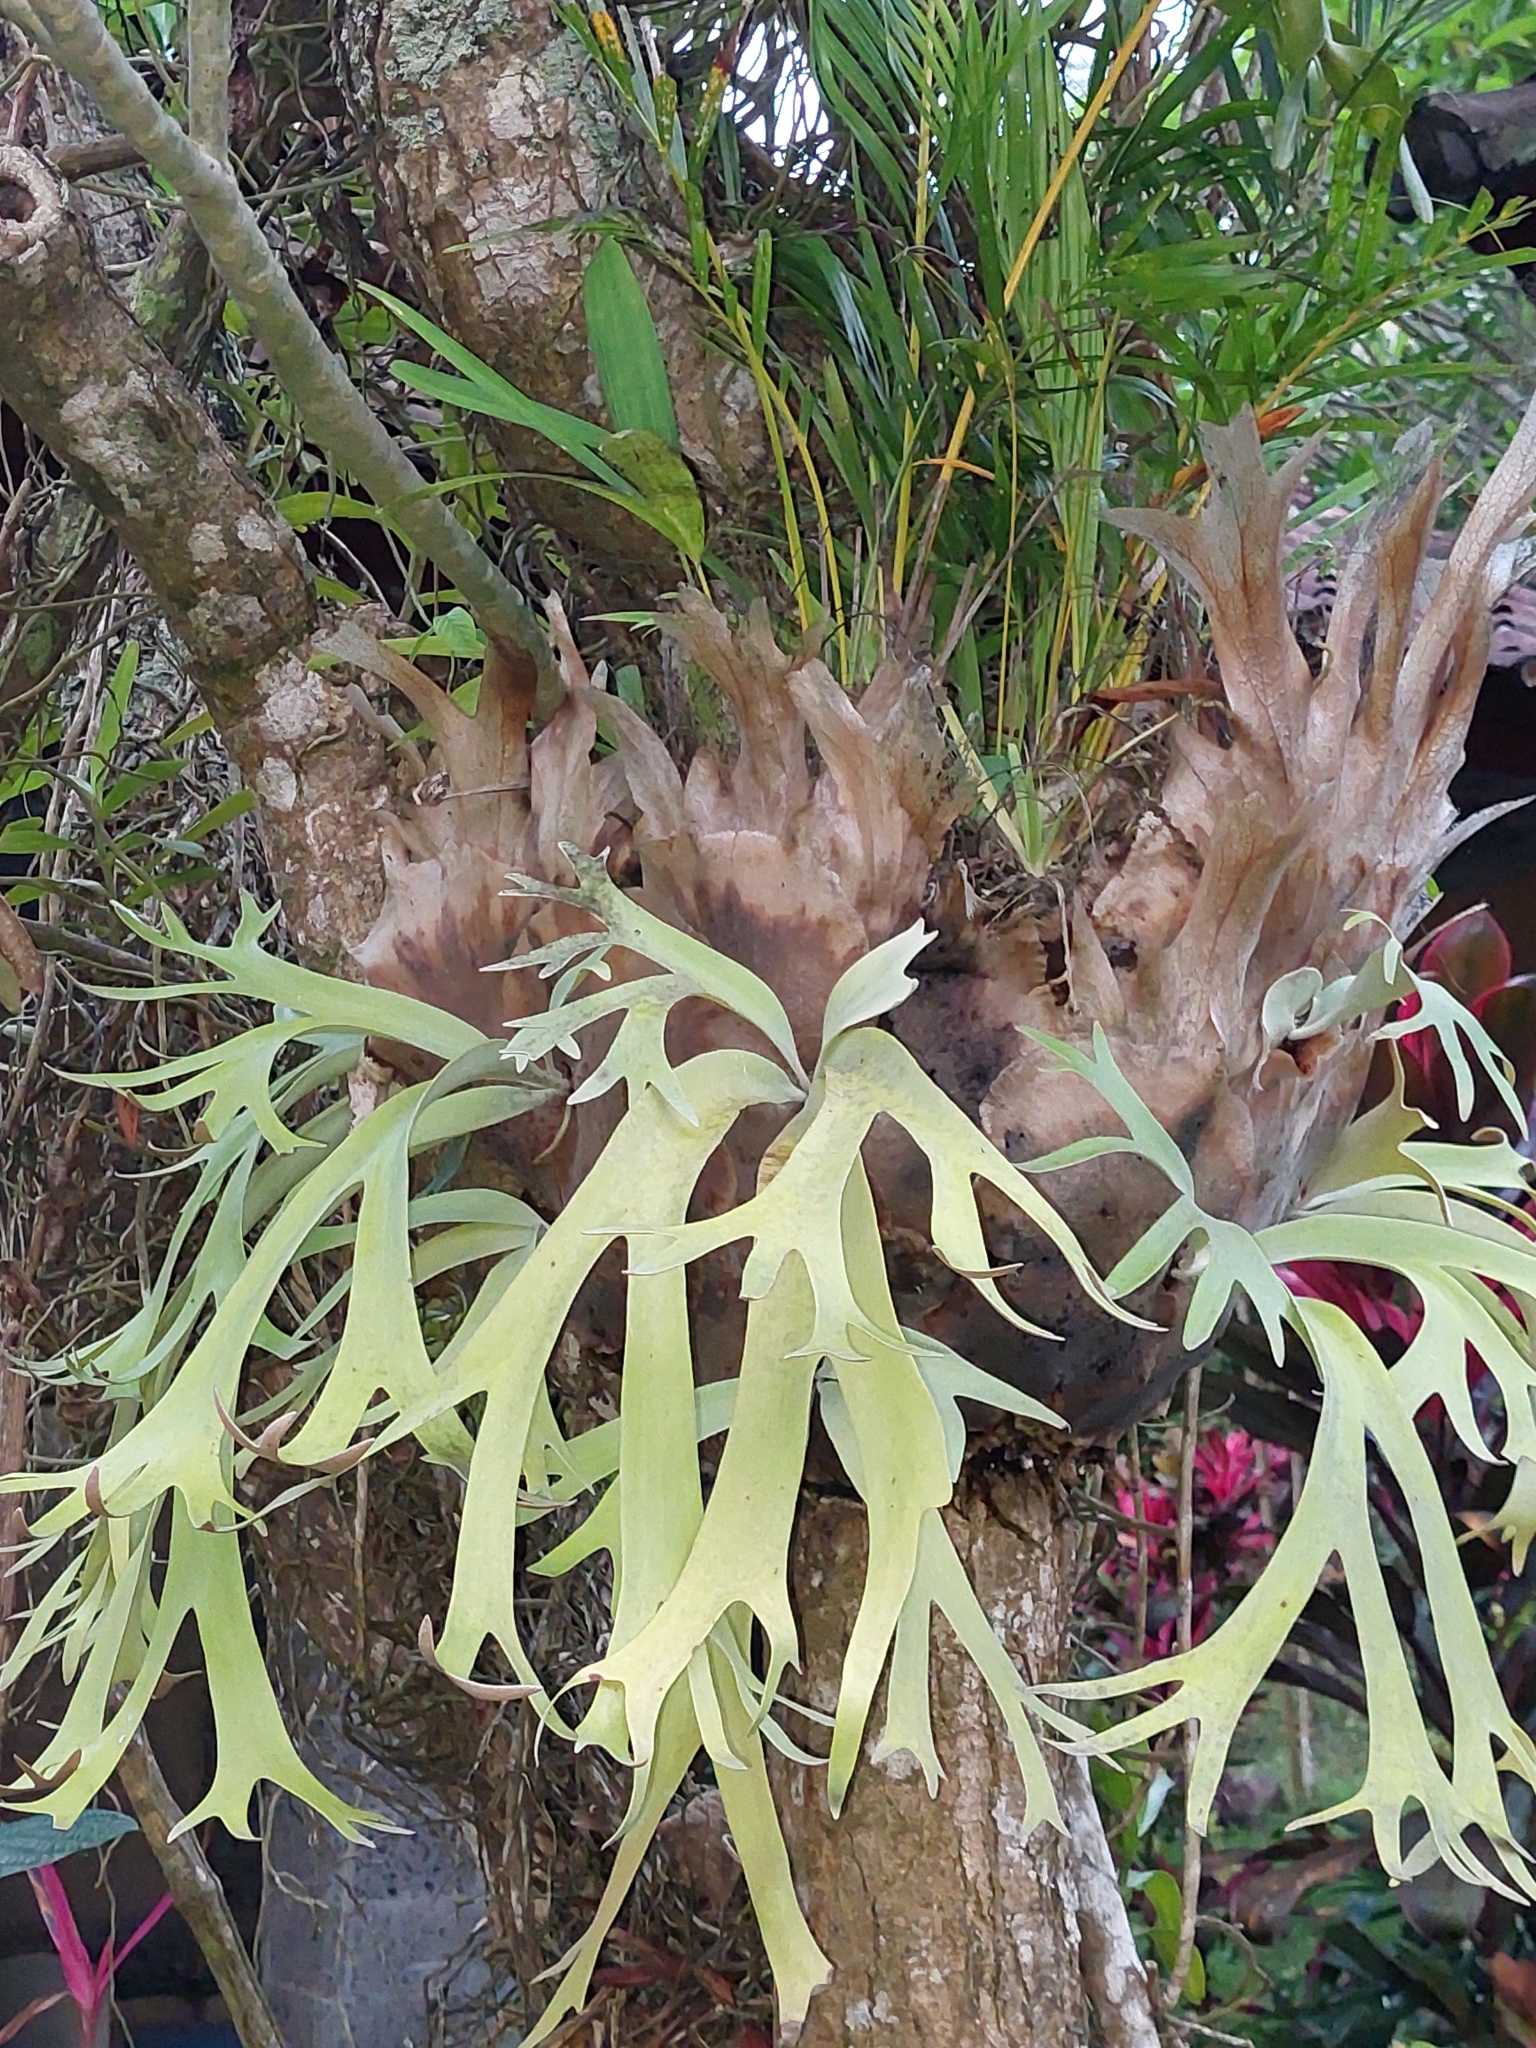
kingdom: Plantae
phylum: Tracheophyta
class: Polypodiopsida
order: Polypodiales
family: Polypodiaceae
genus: Platycerium
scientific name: Platycerium bifurcatum
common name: Elkhorn fern
